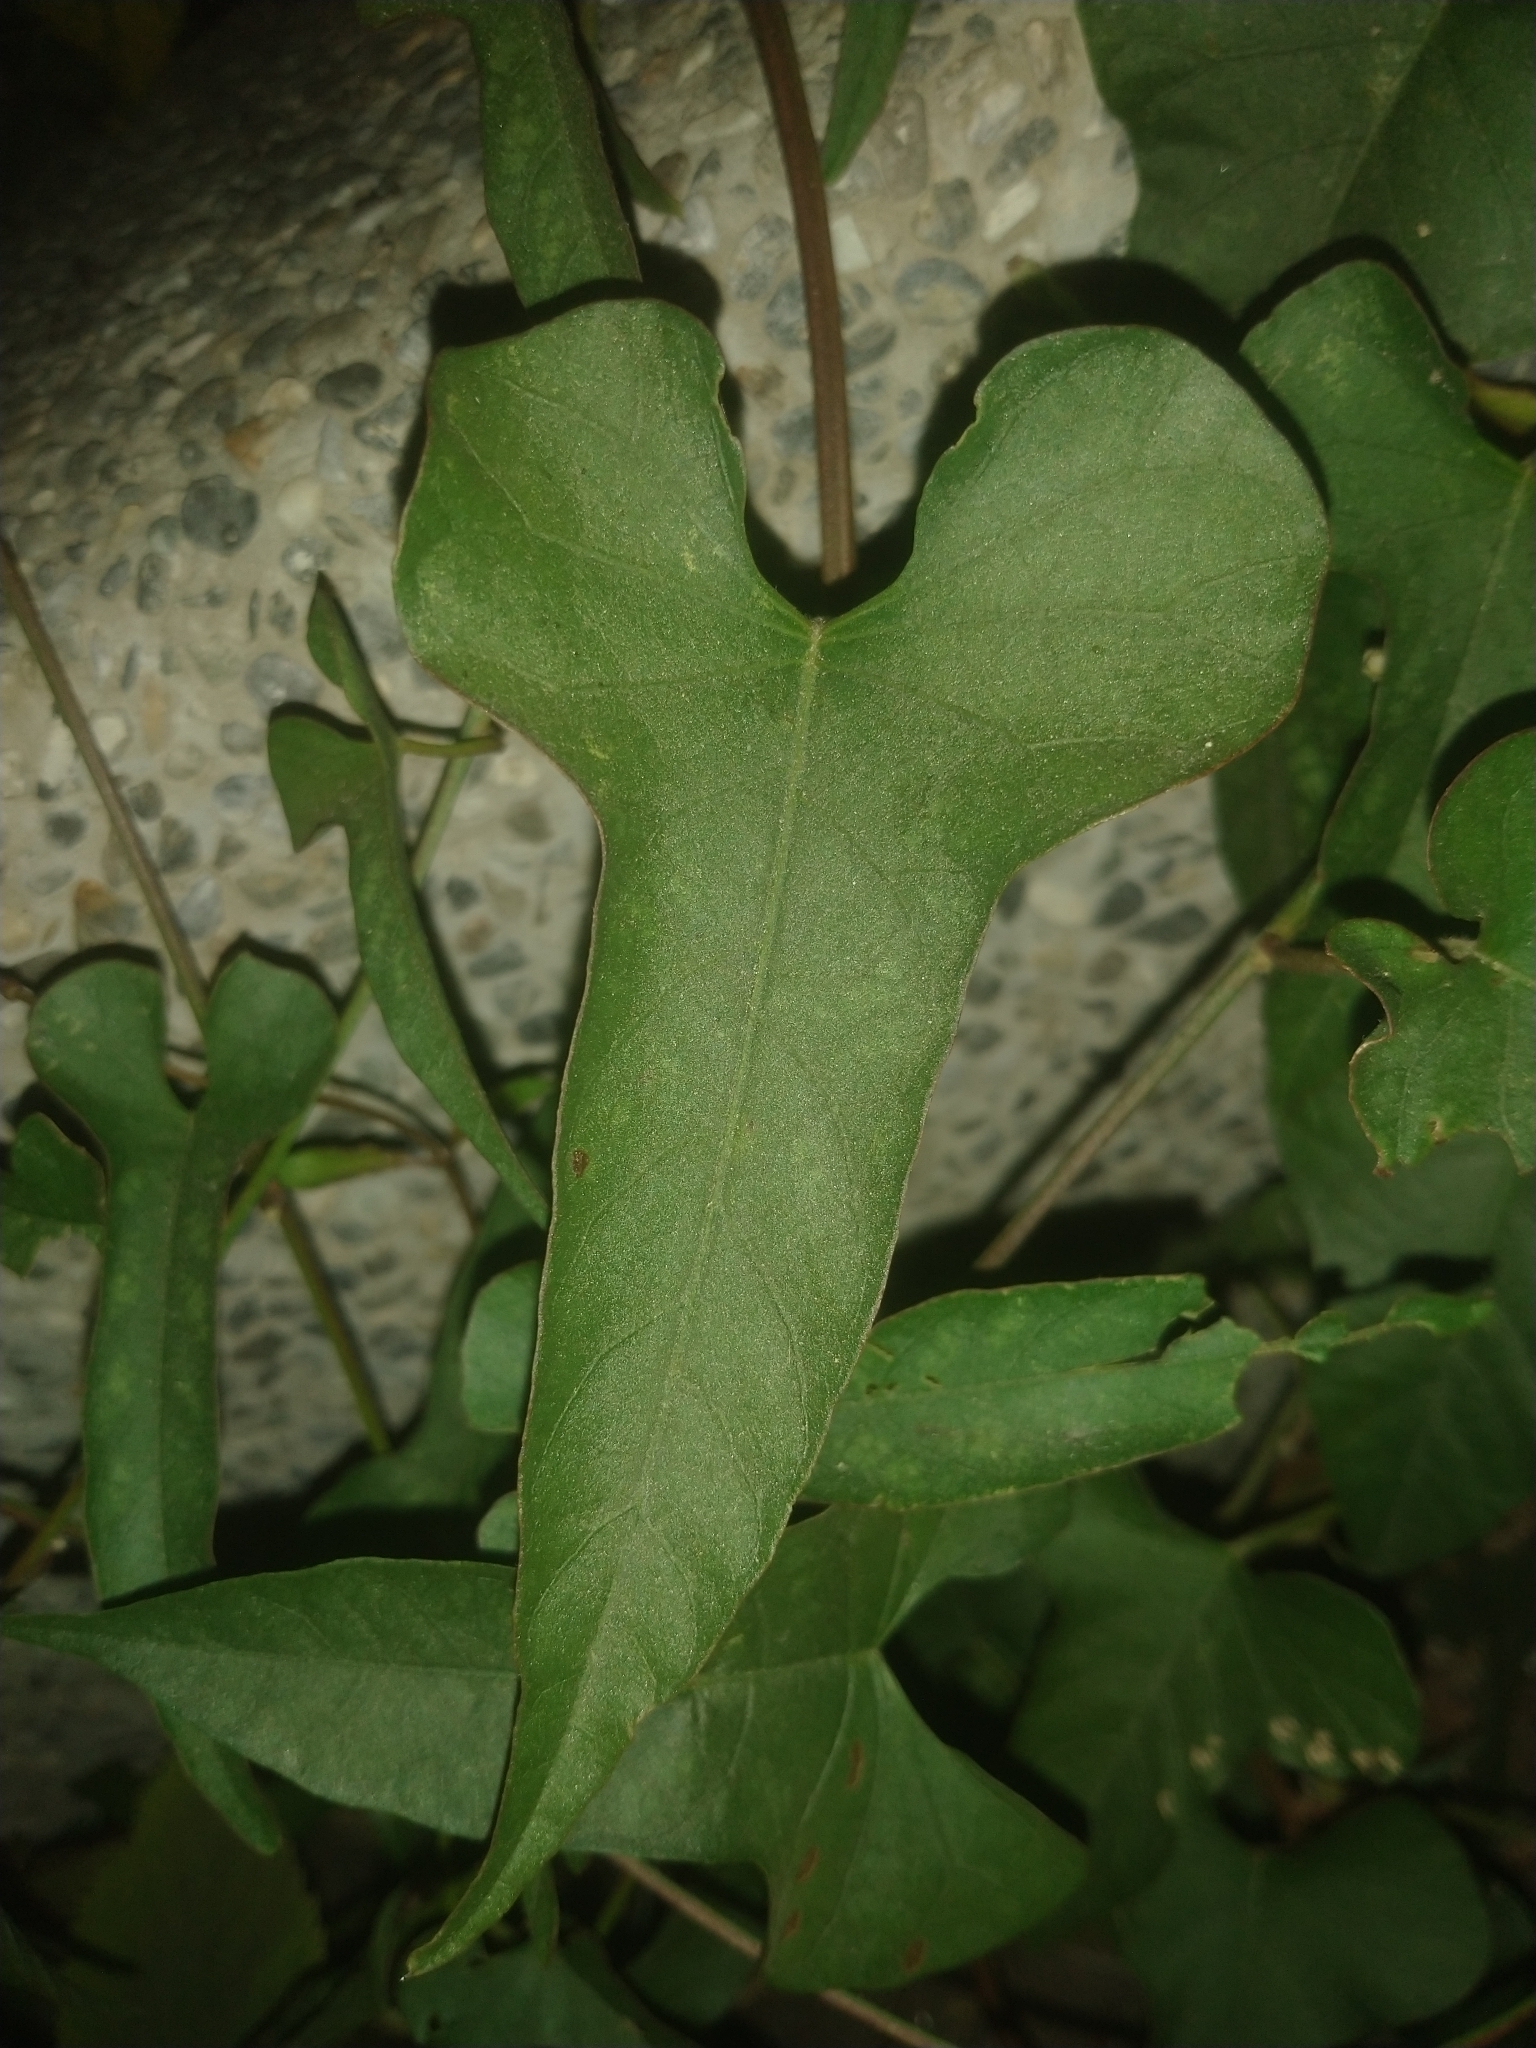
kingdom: Plantae
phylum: Tracheophyta
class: Magnoliopsida
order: Solanales
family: Convolvulaceae
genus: Merremia
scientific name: Merremia gemella
